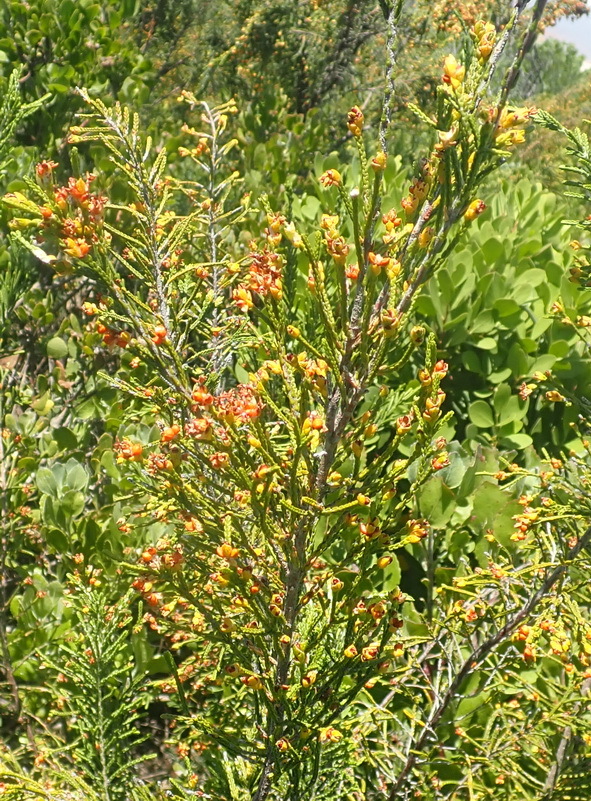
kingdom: Plantae
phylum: Tracheophyta
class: Magnoliopsida
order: Malvales
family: Thymelaeaceae
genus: Passerina
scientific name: Passerina rigida
